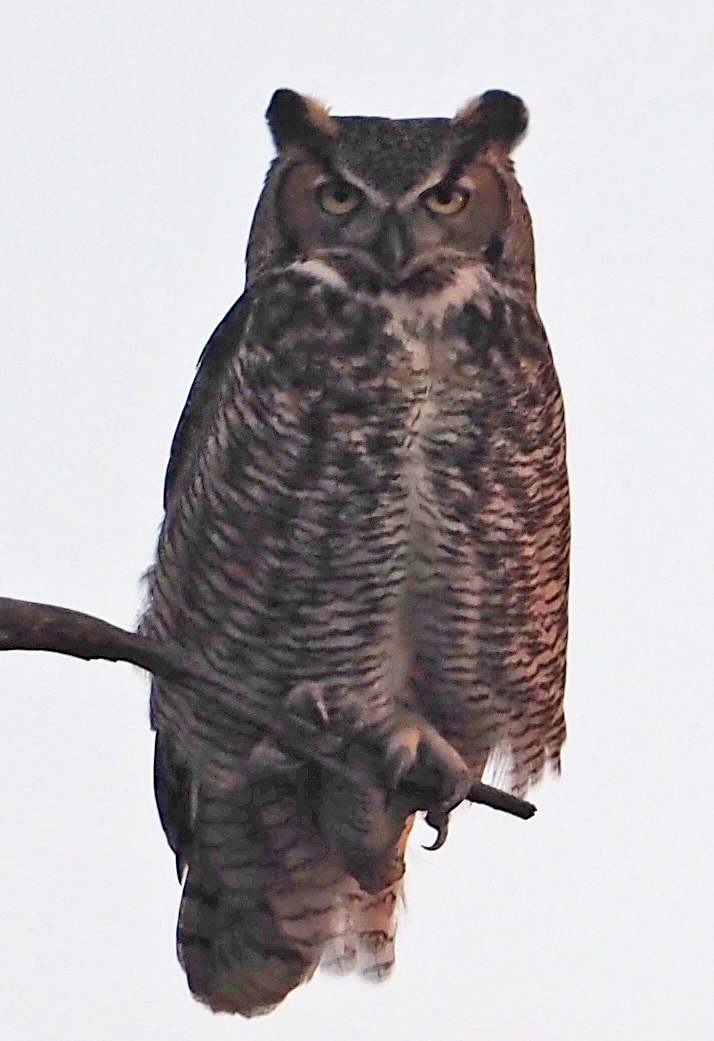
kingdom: Animalia
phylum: Chordata
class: Aves
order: Strigiformes
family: Strigidae
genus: Bubo
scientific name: Bubo virginianus
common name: Great horned owl
